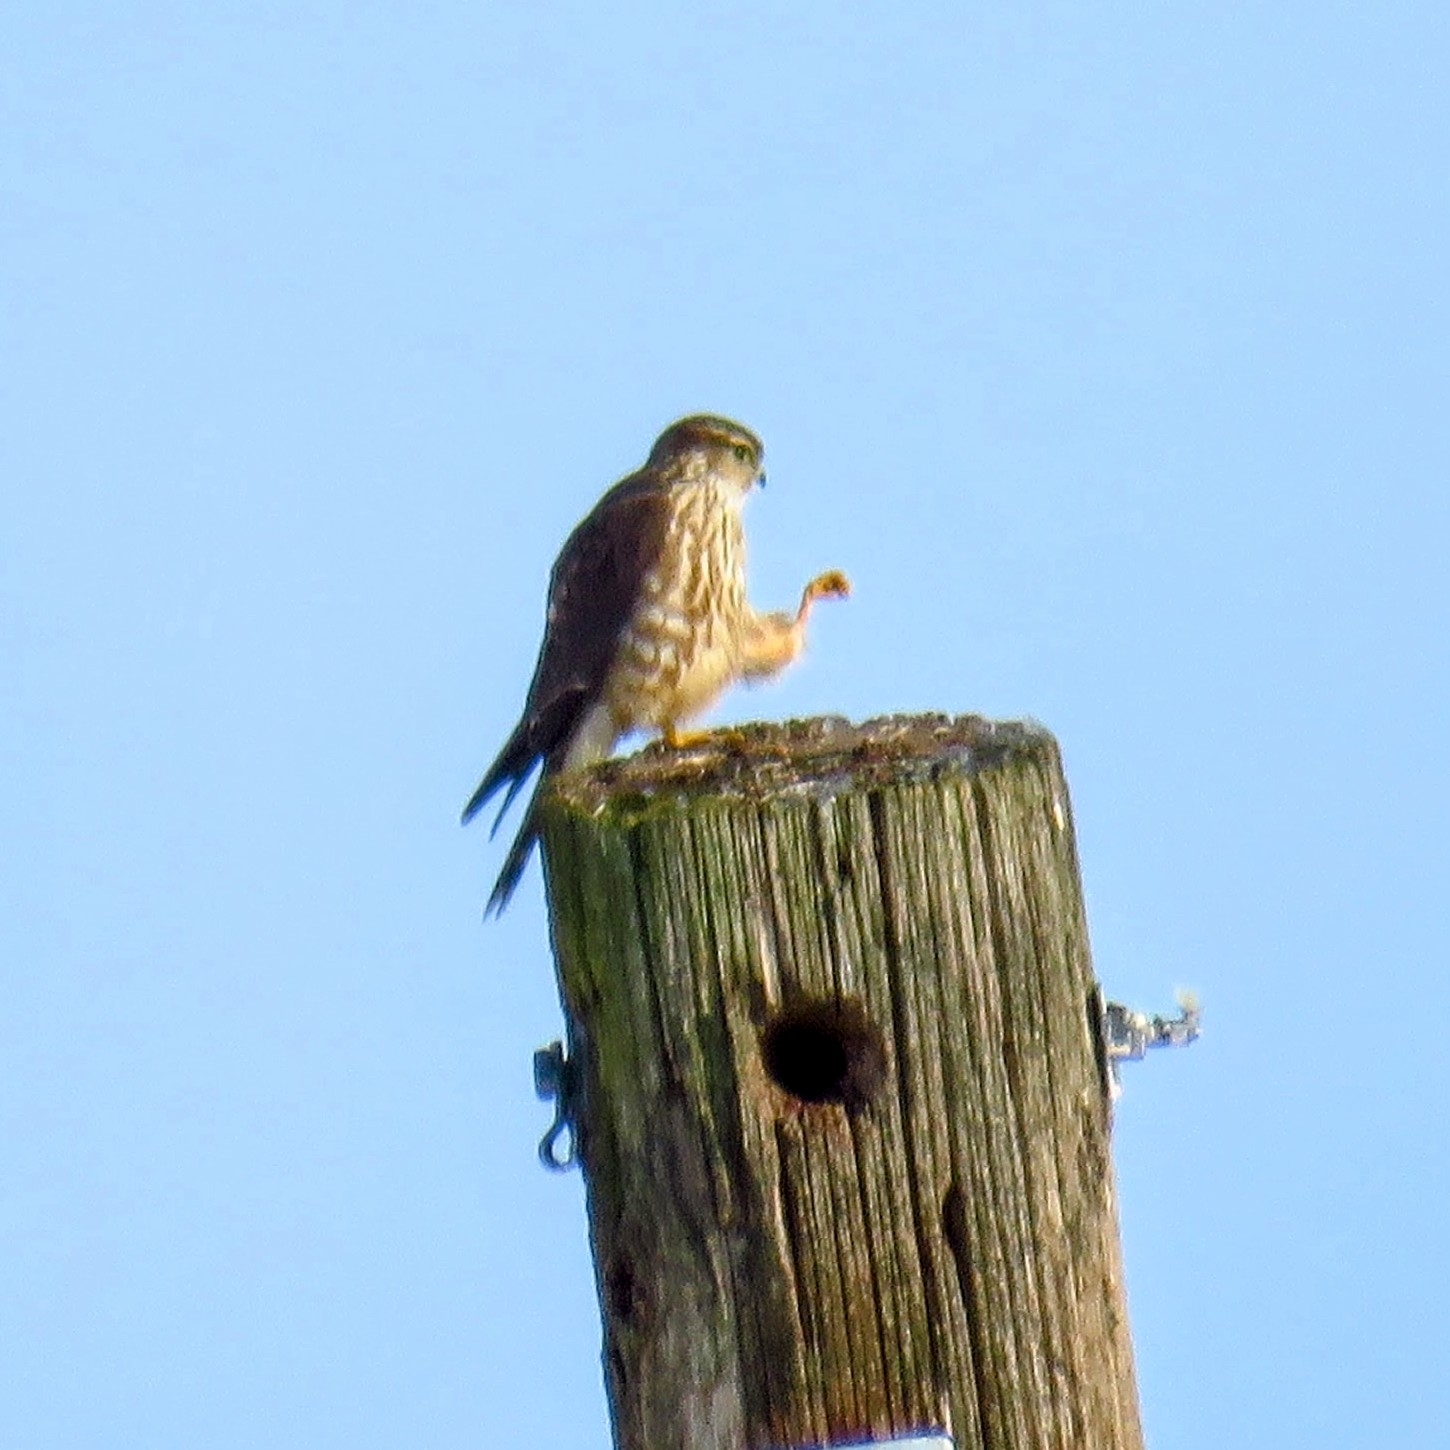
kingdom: Animalia
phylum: Chordata
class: Aves
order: Falconiformes
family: Falconidae
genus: Falco
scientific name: Falco columbarius
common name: Merlin
